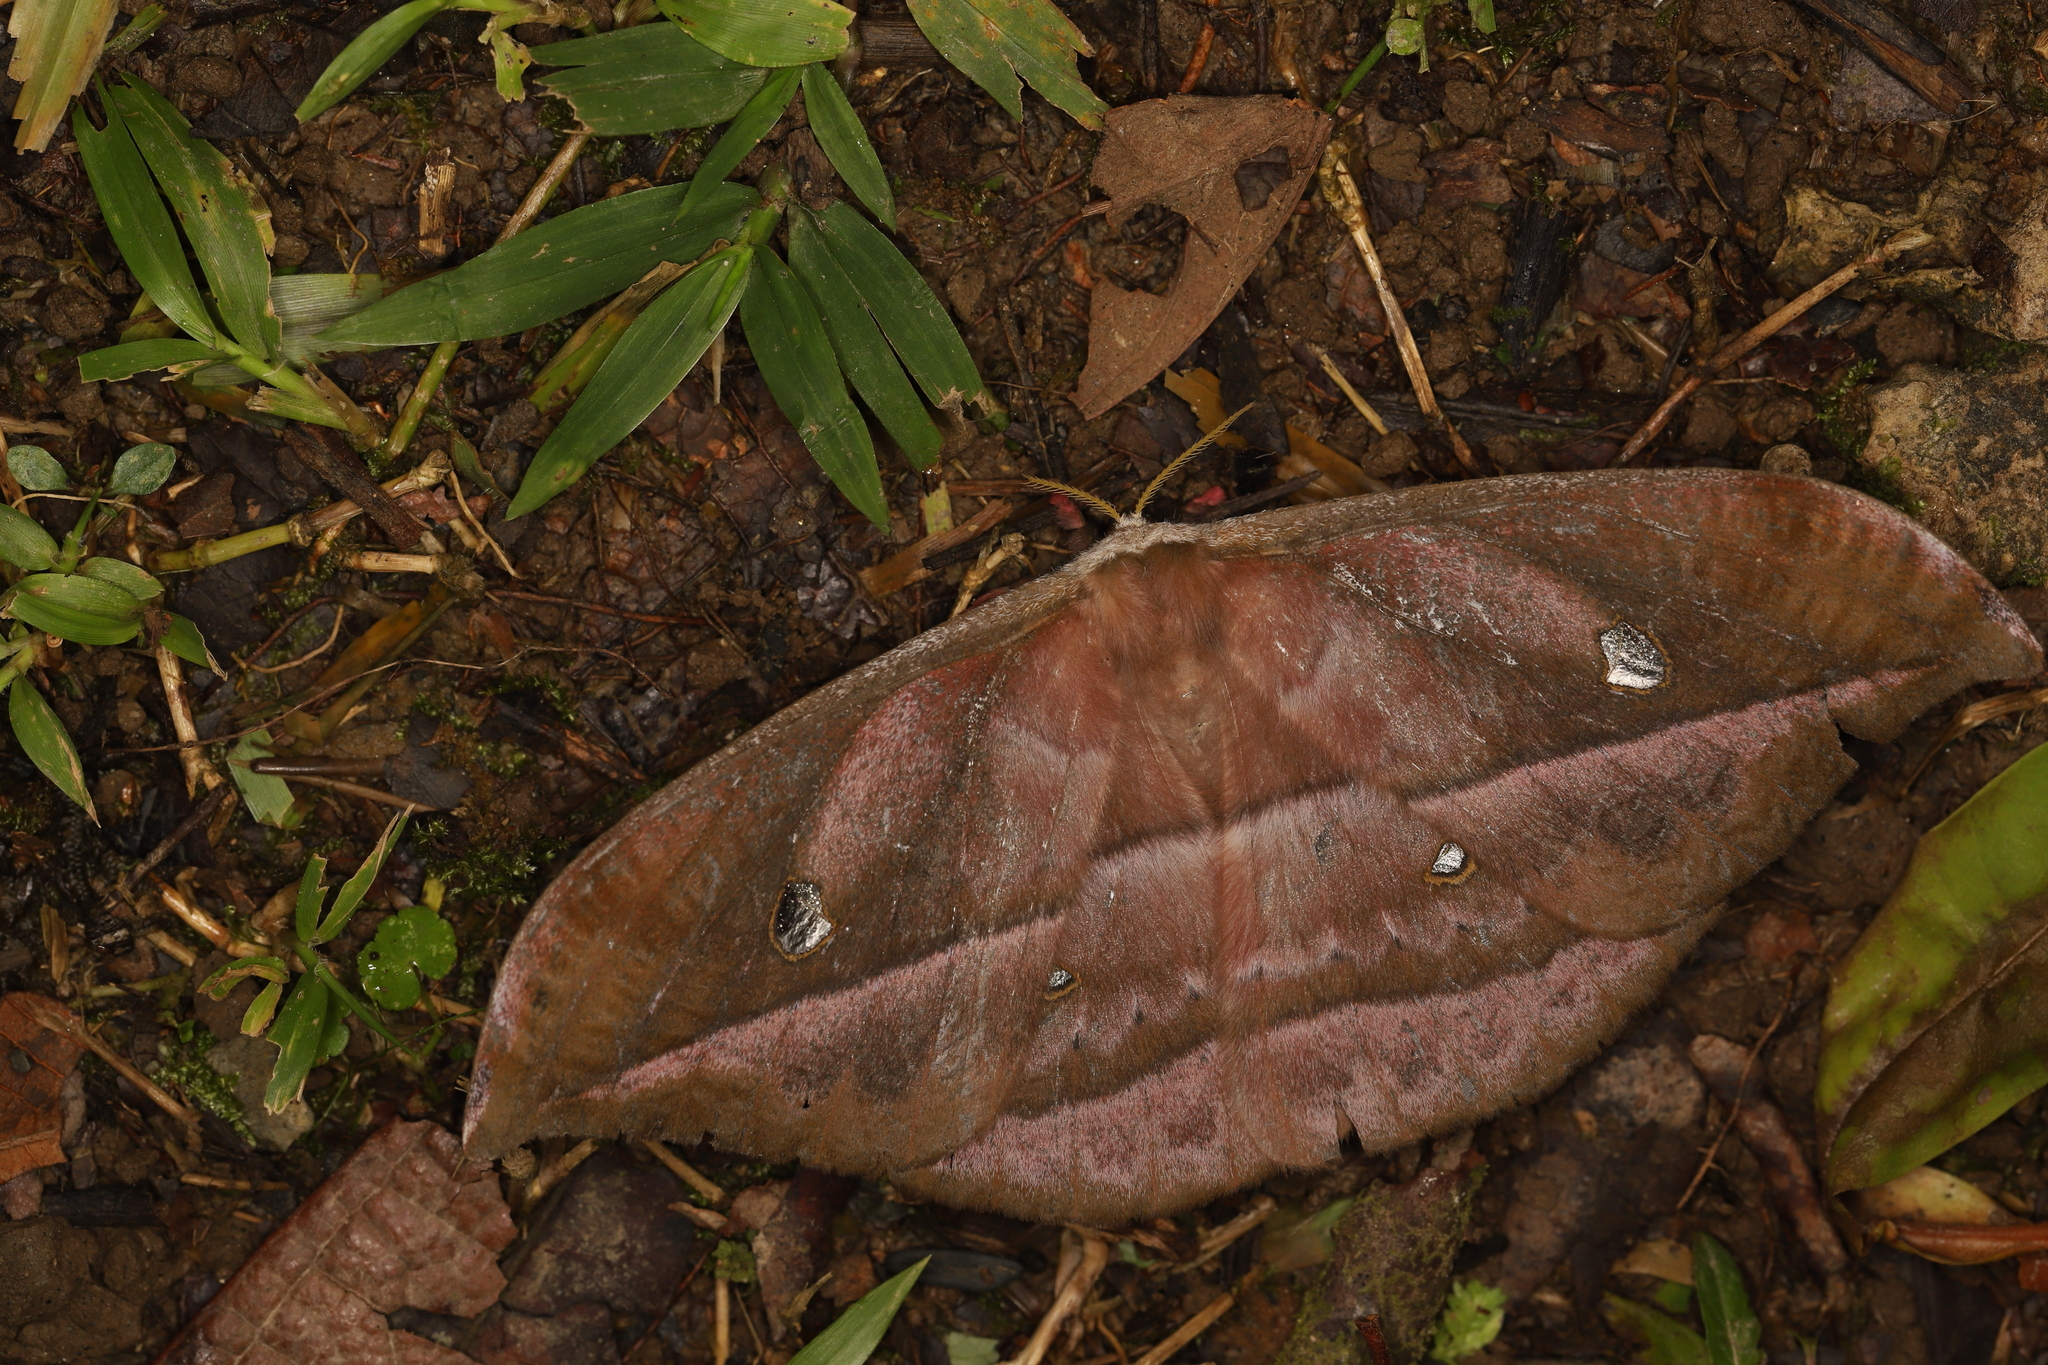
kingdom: Animalia
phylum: Arthropoda
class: Insecta
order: Lepidoptera
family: Saturniidae
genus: Copaxa
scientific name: Copaxa decrescens
